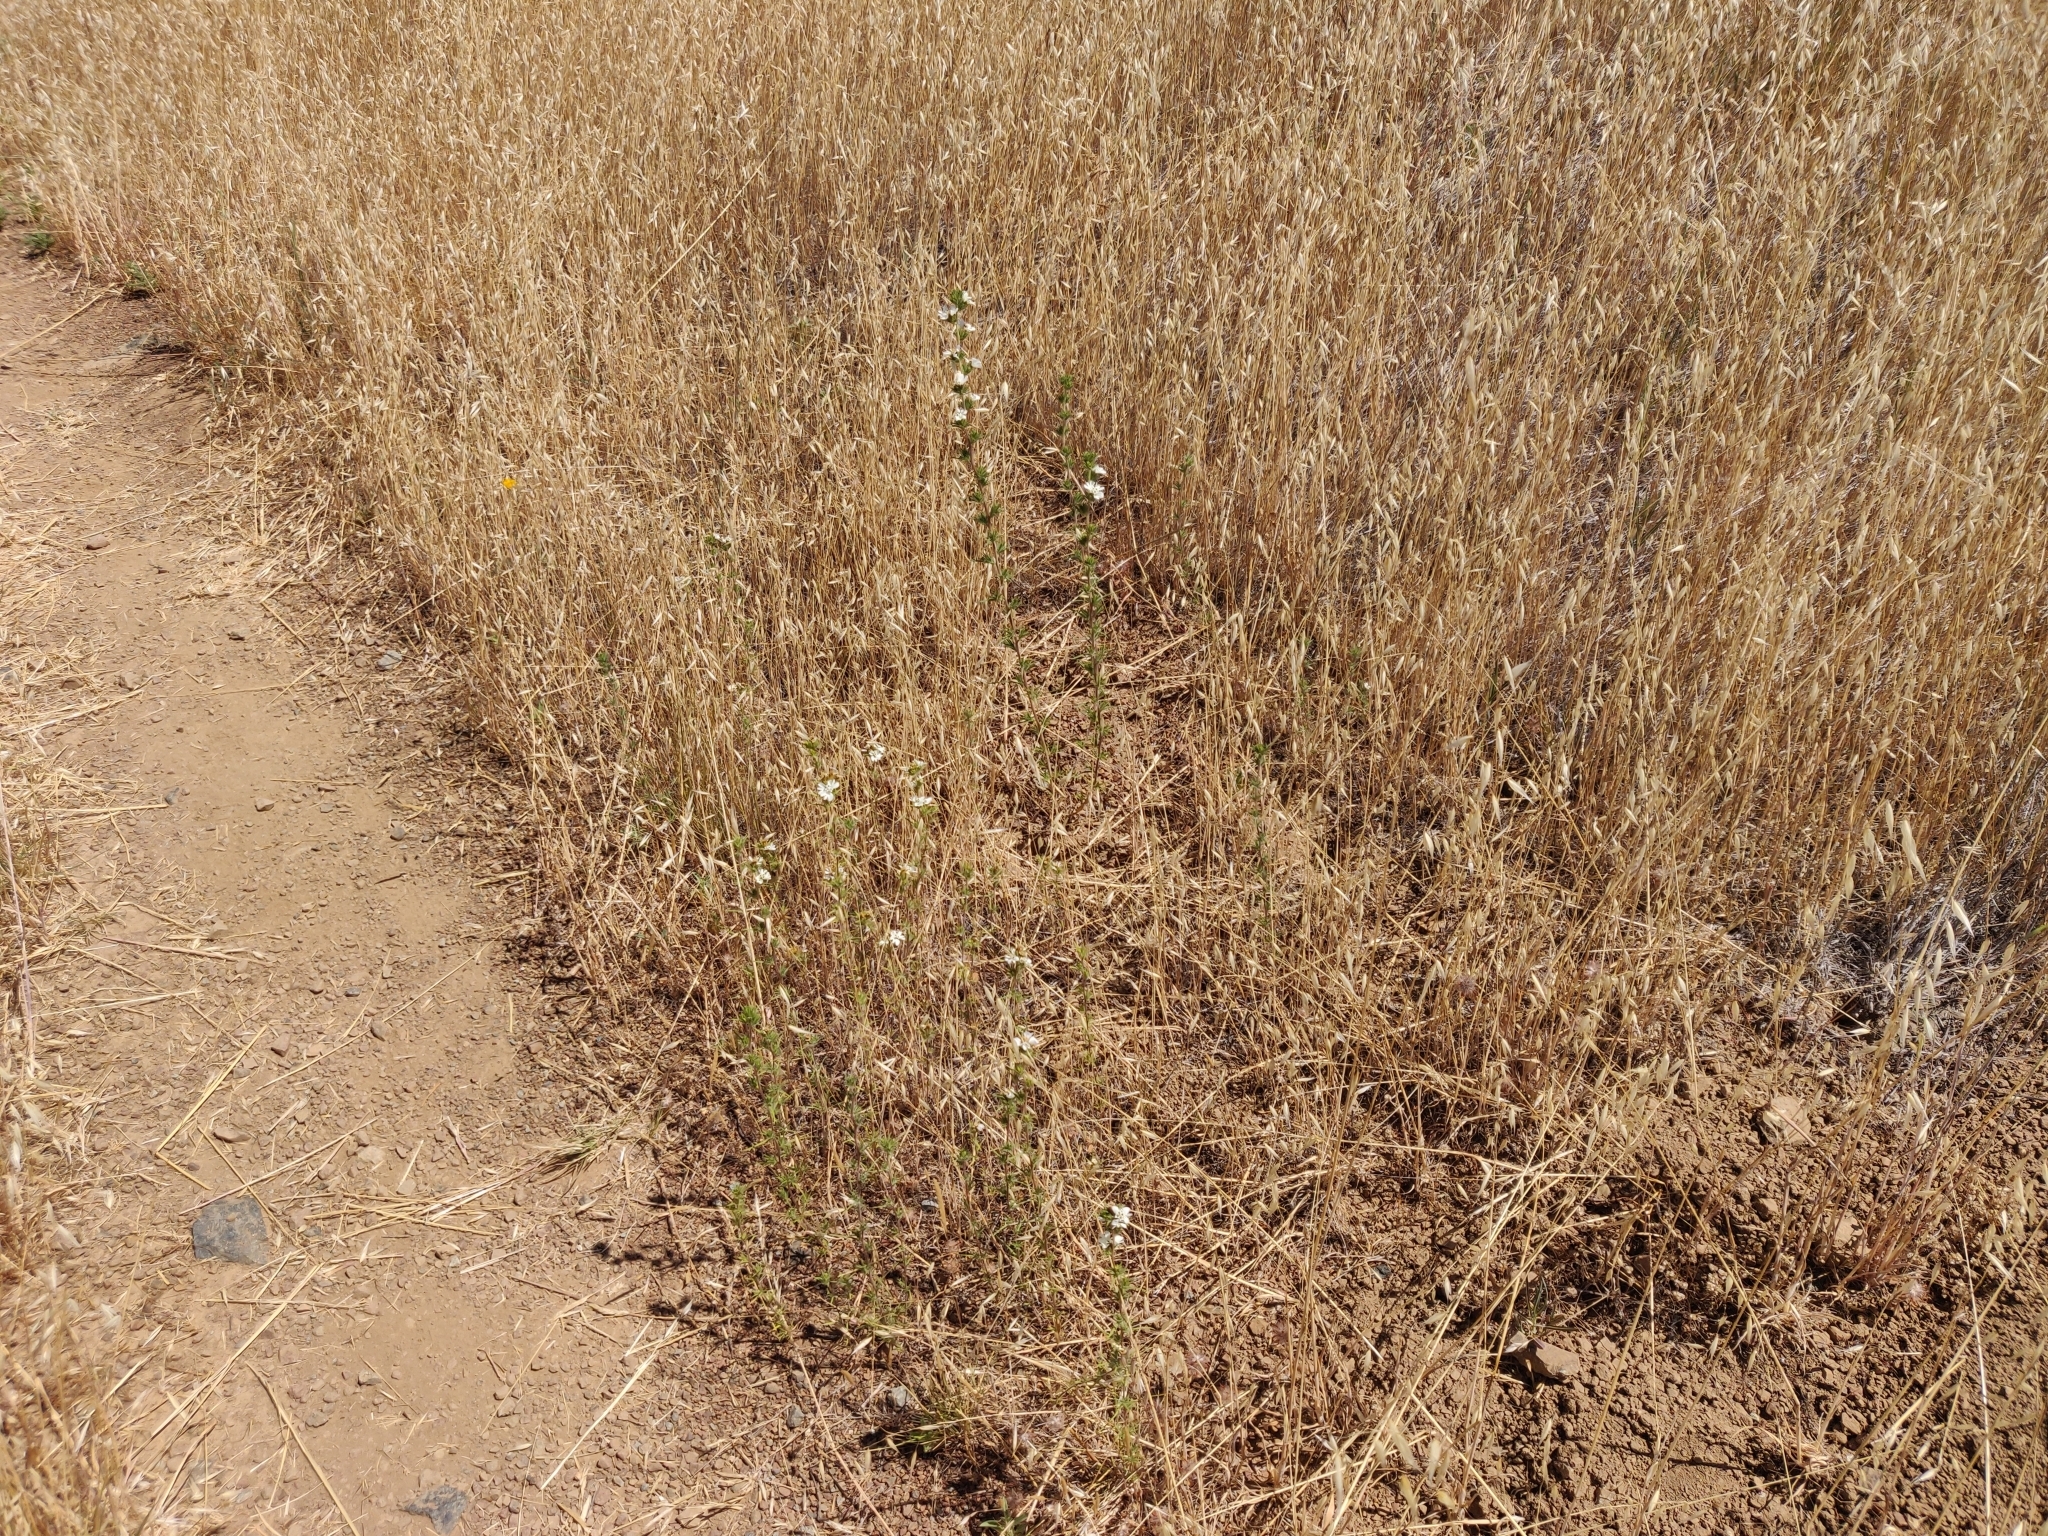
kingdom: Plantae
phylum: Tracheophyta
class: Magnoliopsida
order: Asterales
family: Asteraceae
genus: Calycadenia
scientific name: Calycadenia multiglandulosa
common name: Sticky calycadenia
